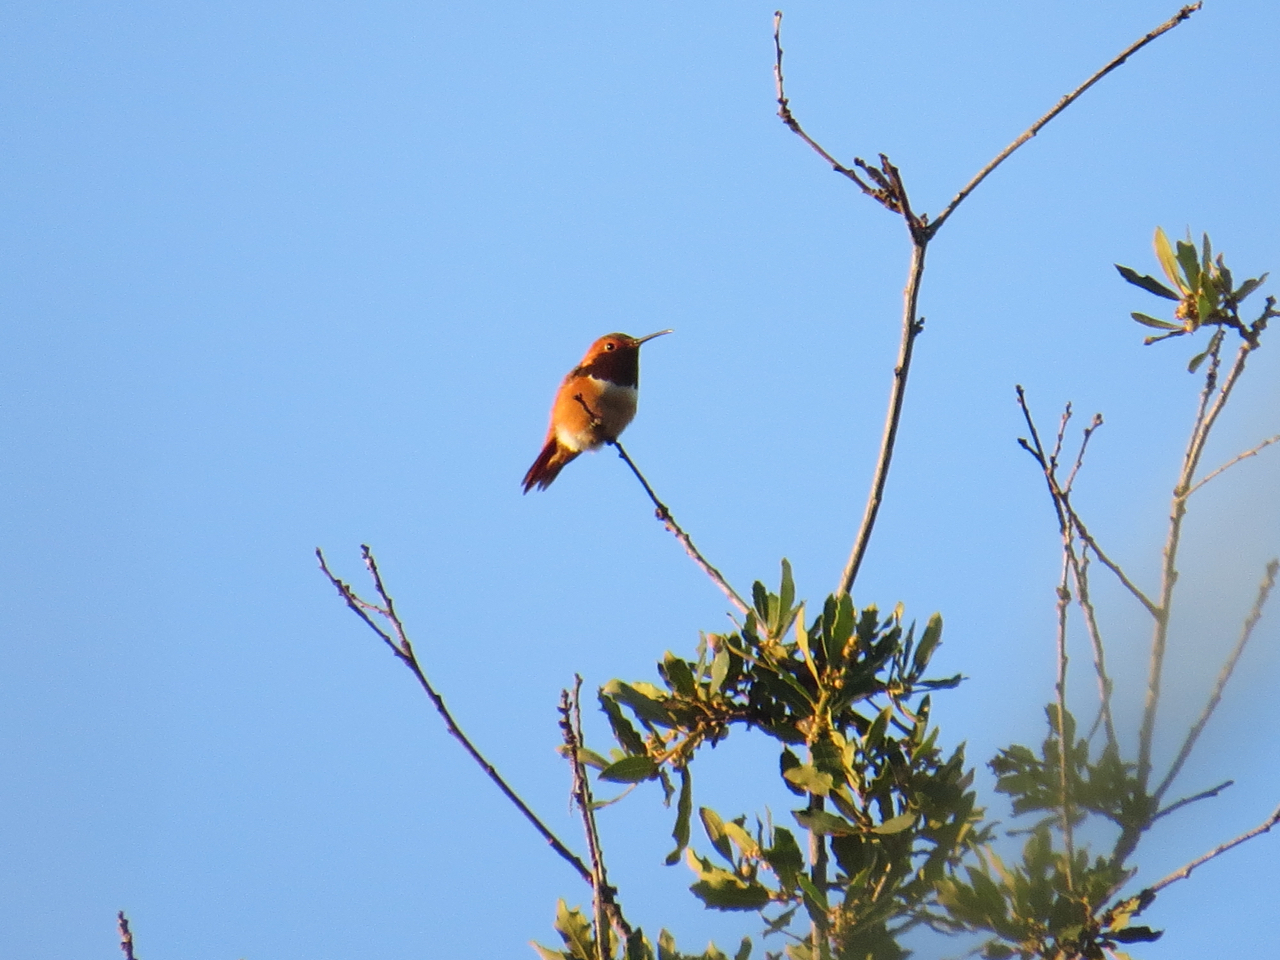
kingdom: Animalia
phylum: Chordata
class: Aves
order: Apodiformes
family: Trochilidae
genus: Selasphorus
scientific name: Selasphorus sasin
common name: Allen's hummingbird
